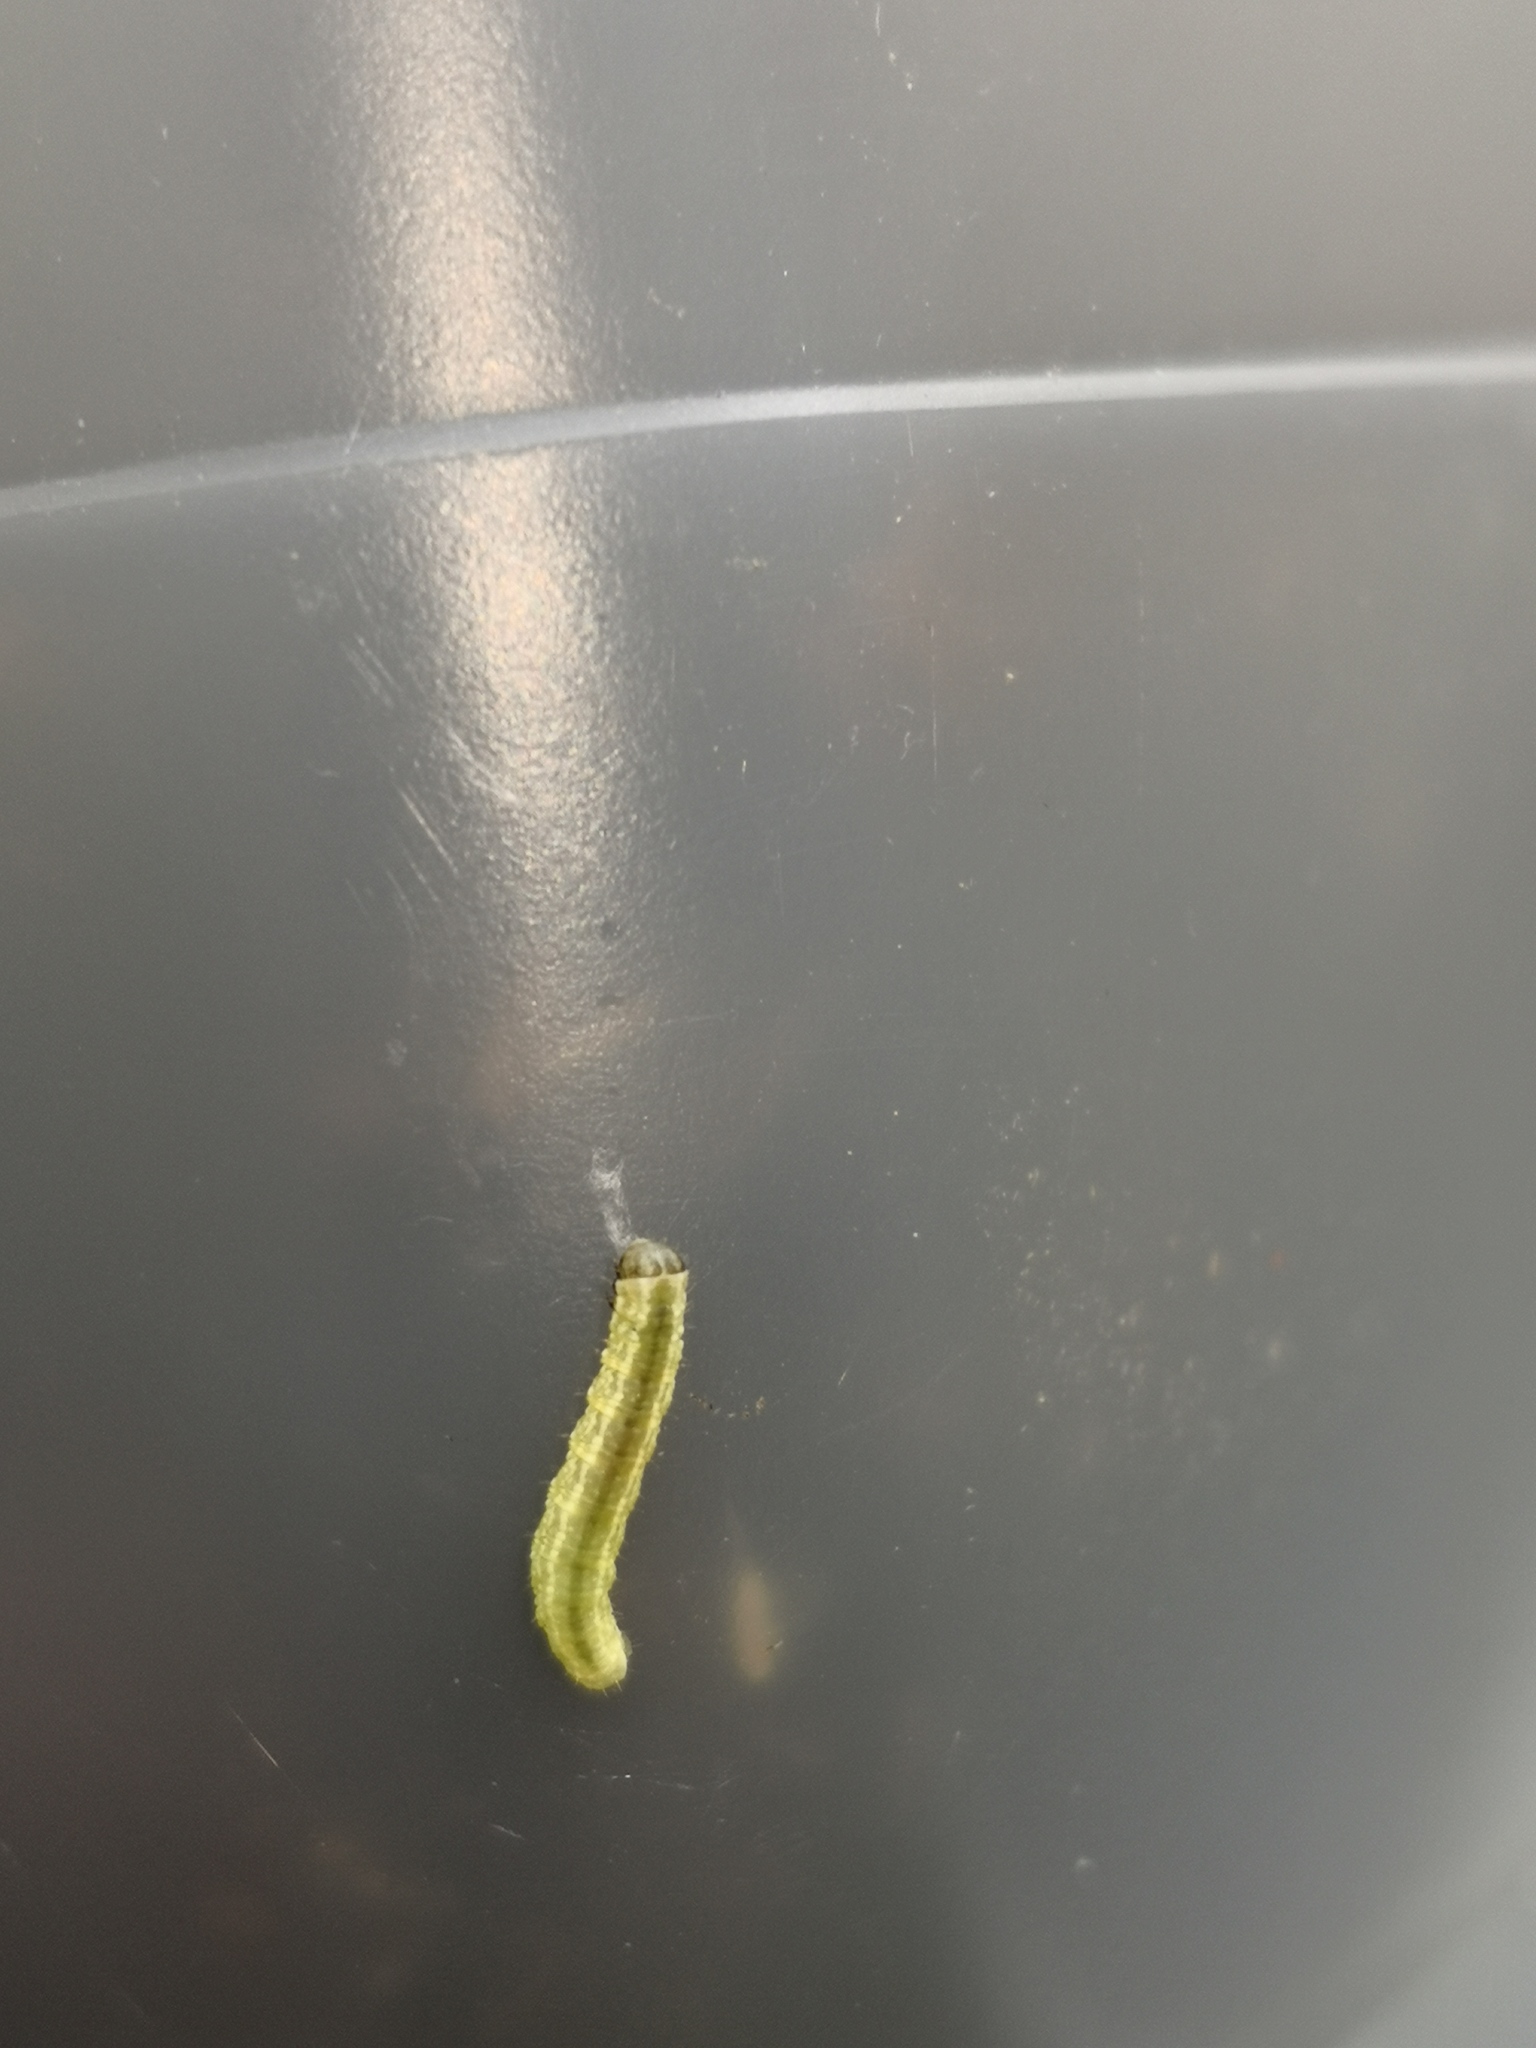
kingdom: Animalia
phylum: Arthropoda
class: Insecta
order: Lepidoptera
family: Geometridae
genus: Operophtera
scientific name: Operophtera fagata
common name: Northern winter moth
